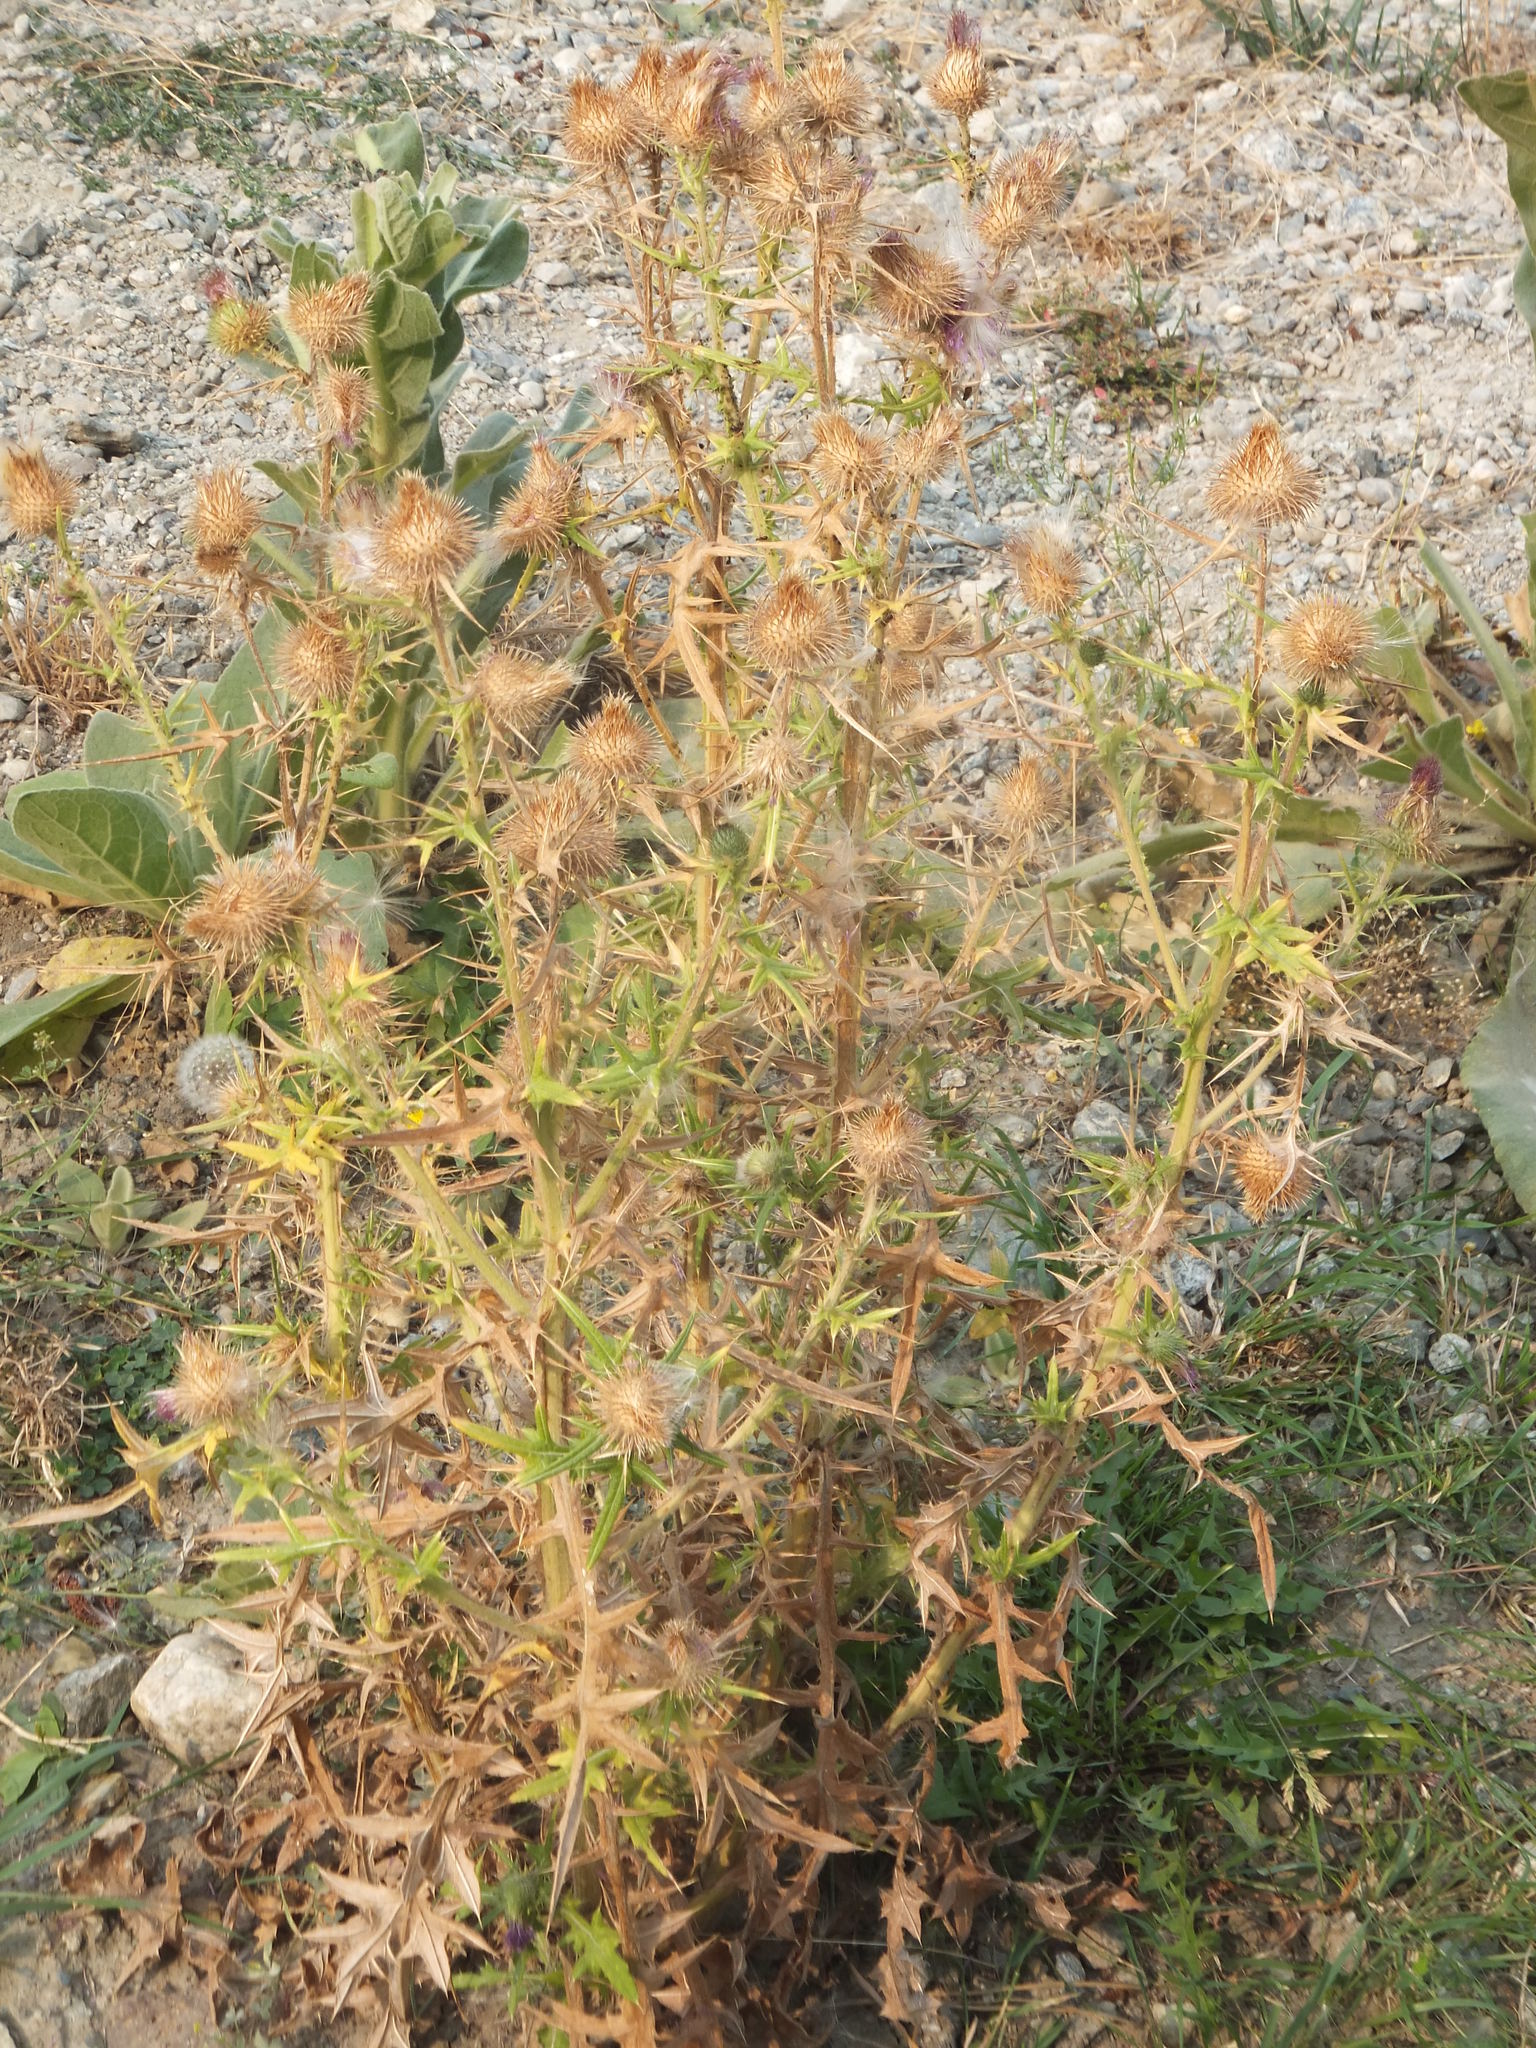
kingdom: Plantae
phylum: Tracheophyta
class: Magnoliopsida
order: Asterales
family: Asteraceae
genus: Cirsium
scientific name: Cirsium vulgare
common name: Bull thistle
